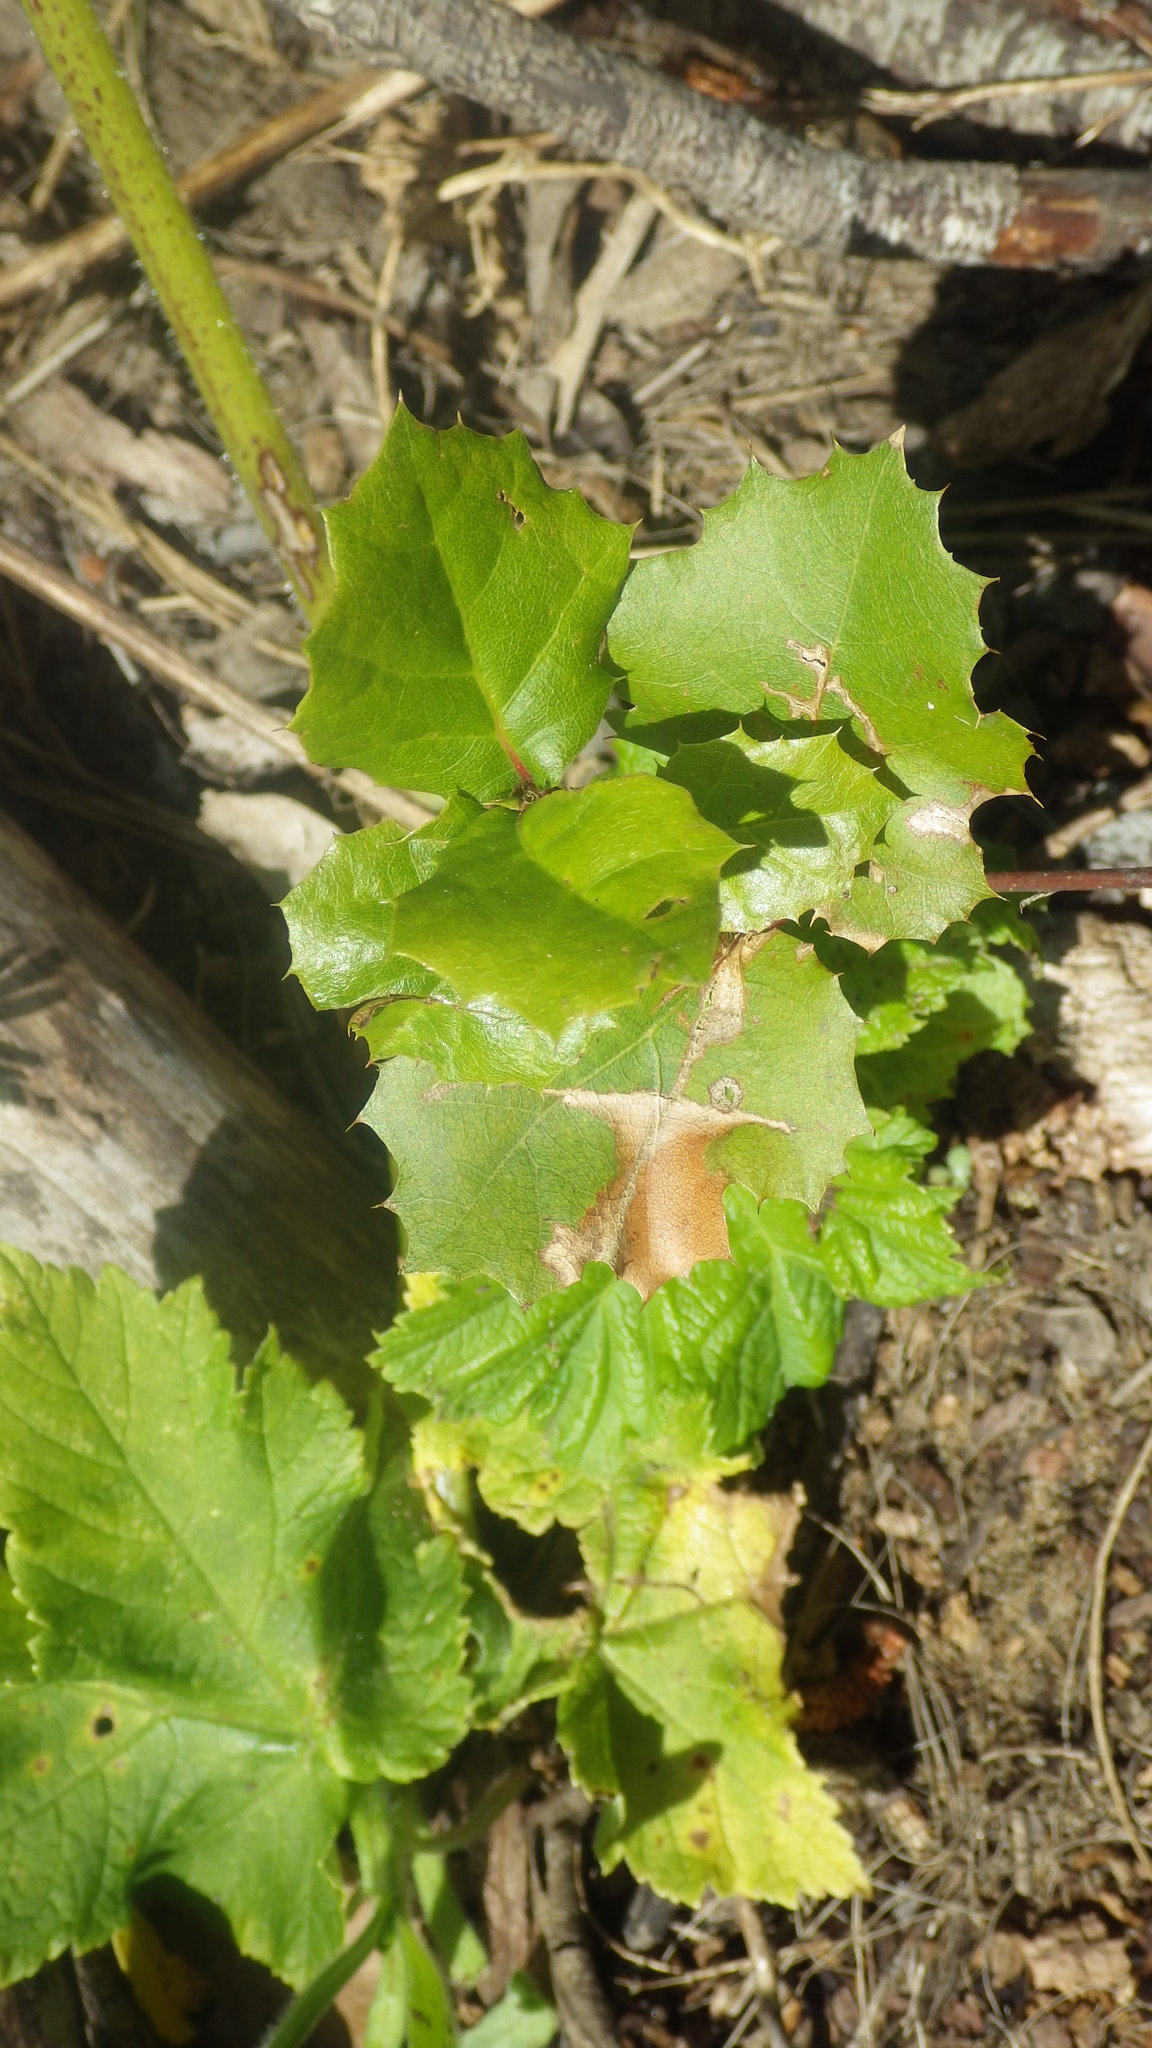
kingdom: Plantae
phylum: Tracheophyta
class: Magnoliopsida
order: Fagales
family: Fagaceae
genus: Quercus
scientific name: Quercus agrifolia
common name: California live oak
